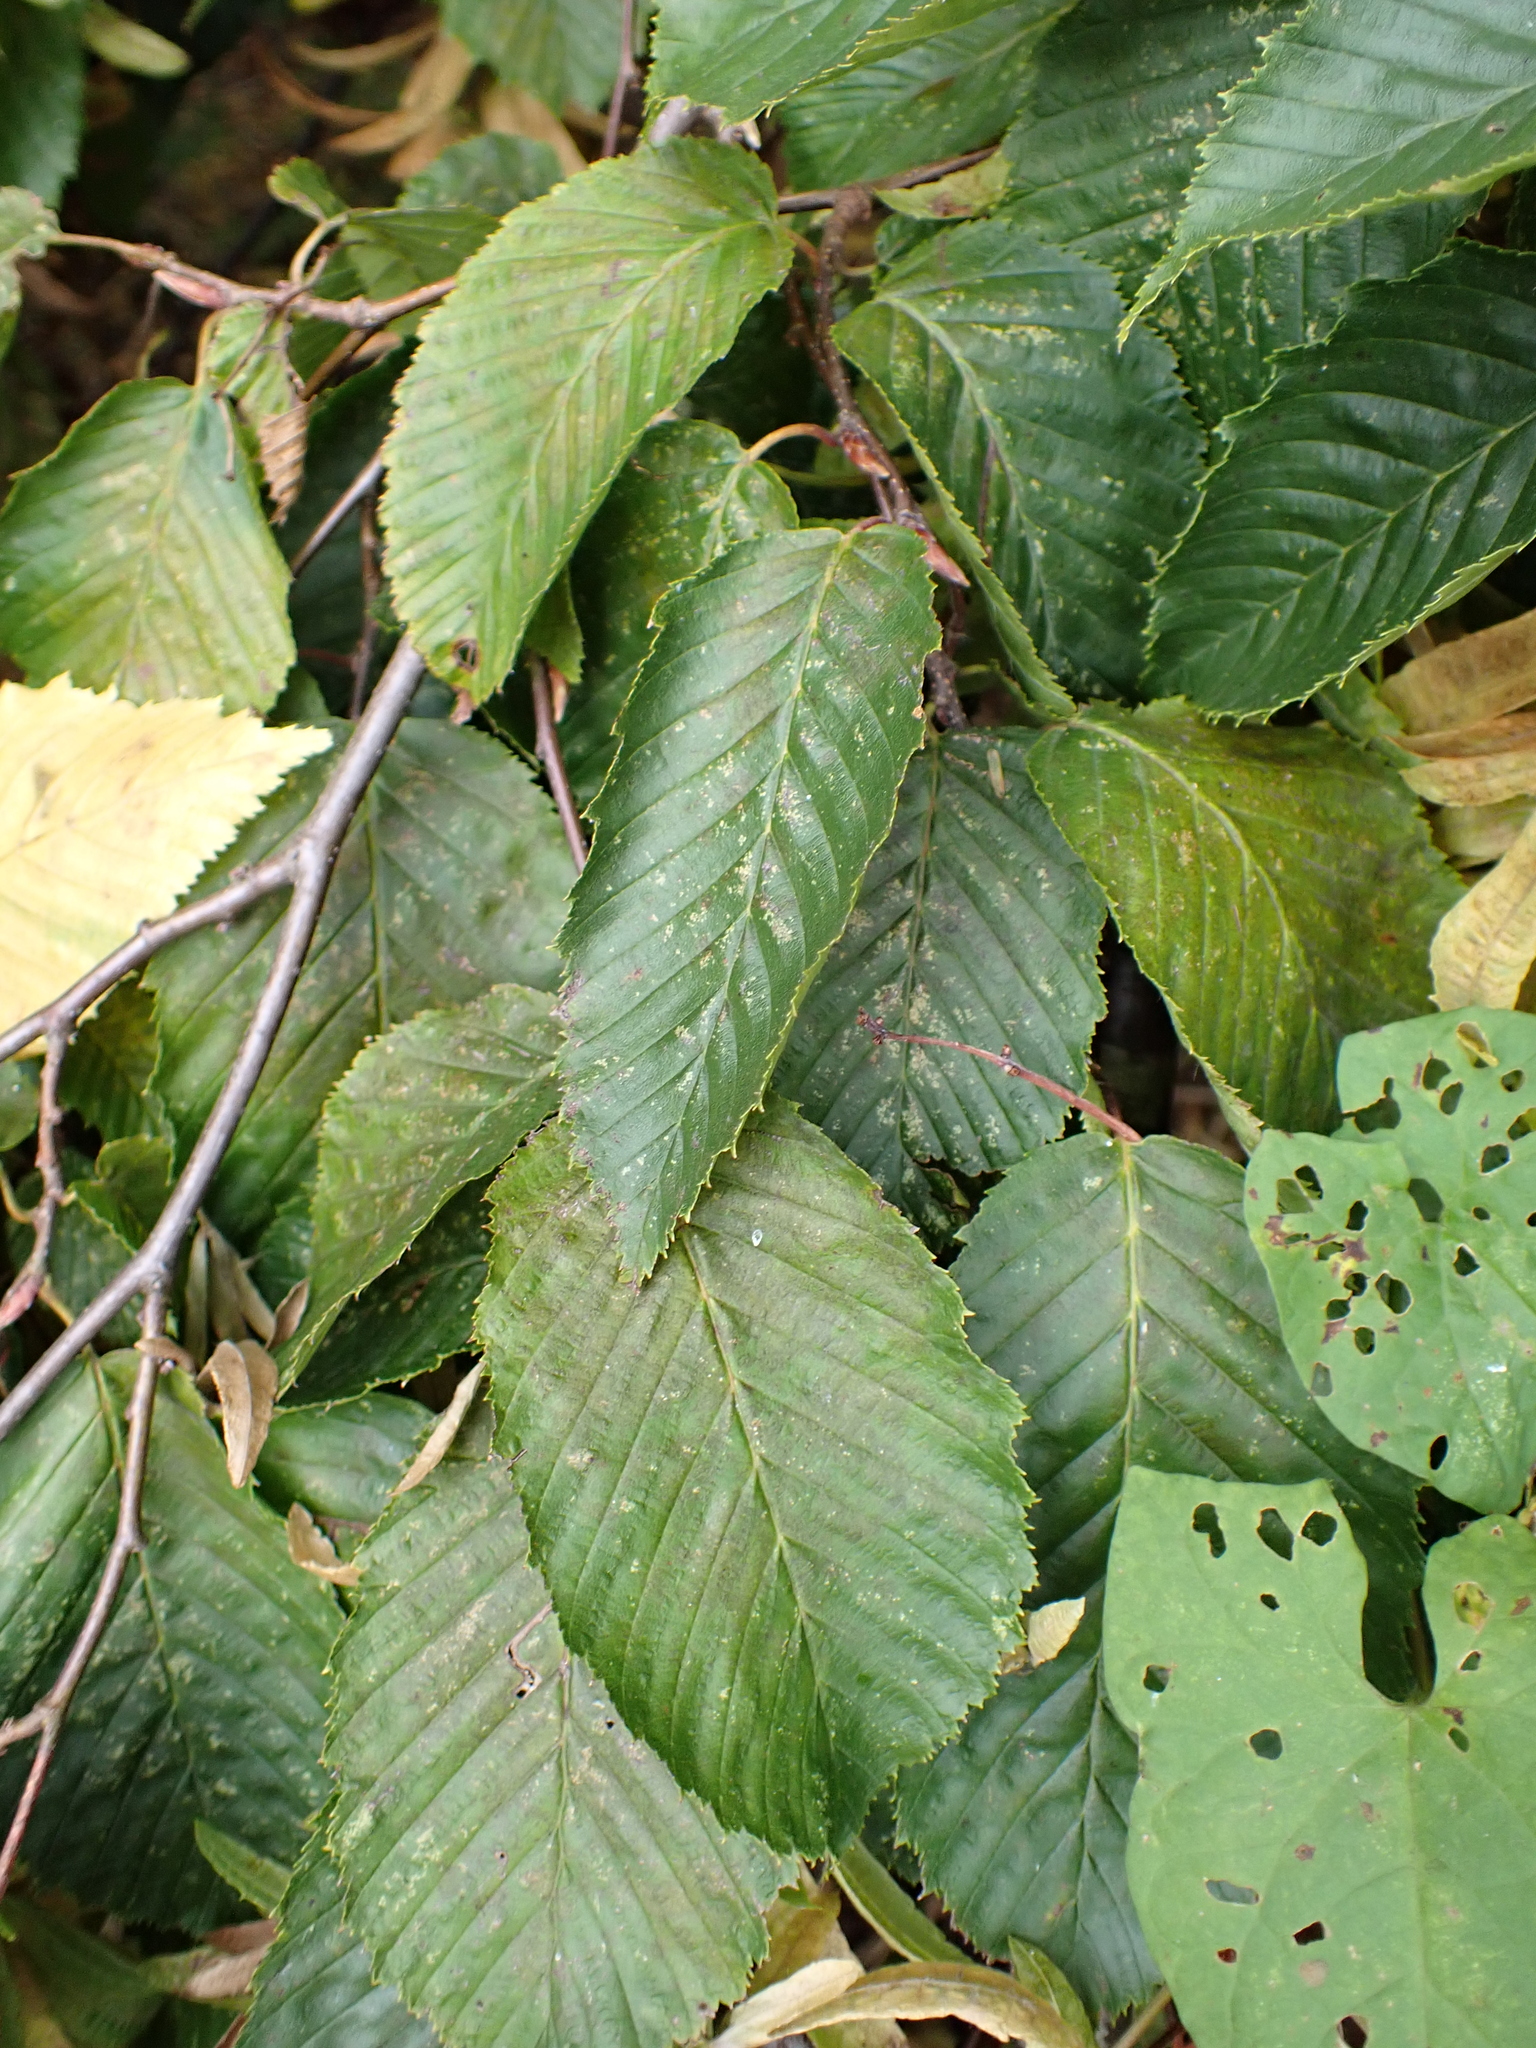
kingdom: Plantae
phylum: Tracheophyta
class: Magnoliopsida
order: Fagales
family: Betulaceae
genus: Carpinus
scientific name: Carpinus betulus
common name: Hornbeam
